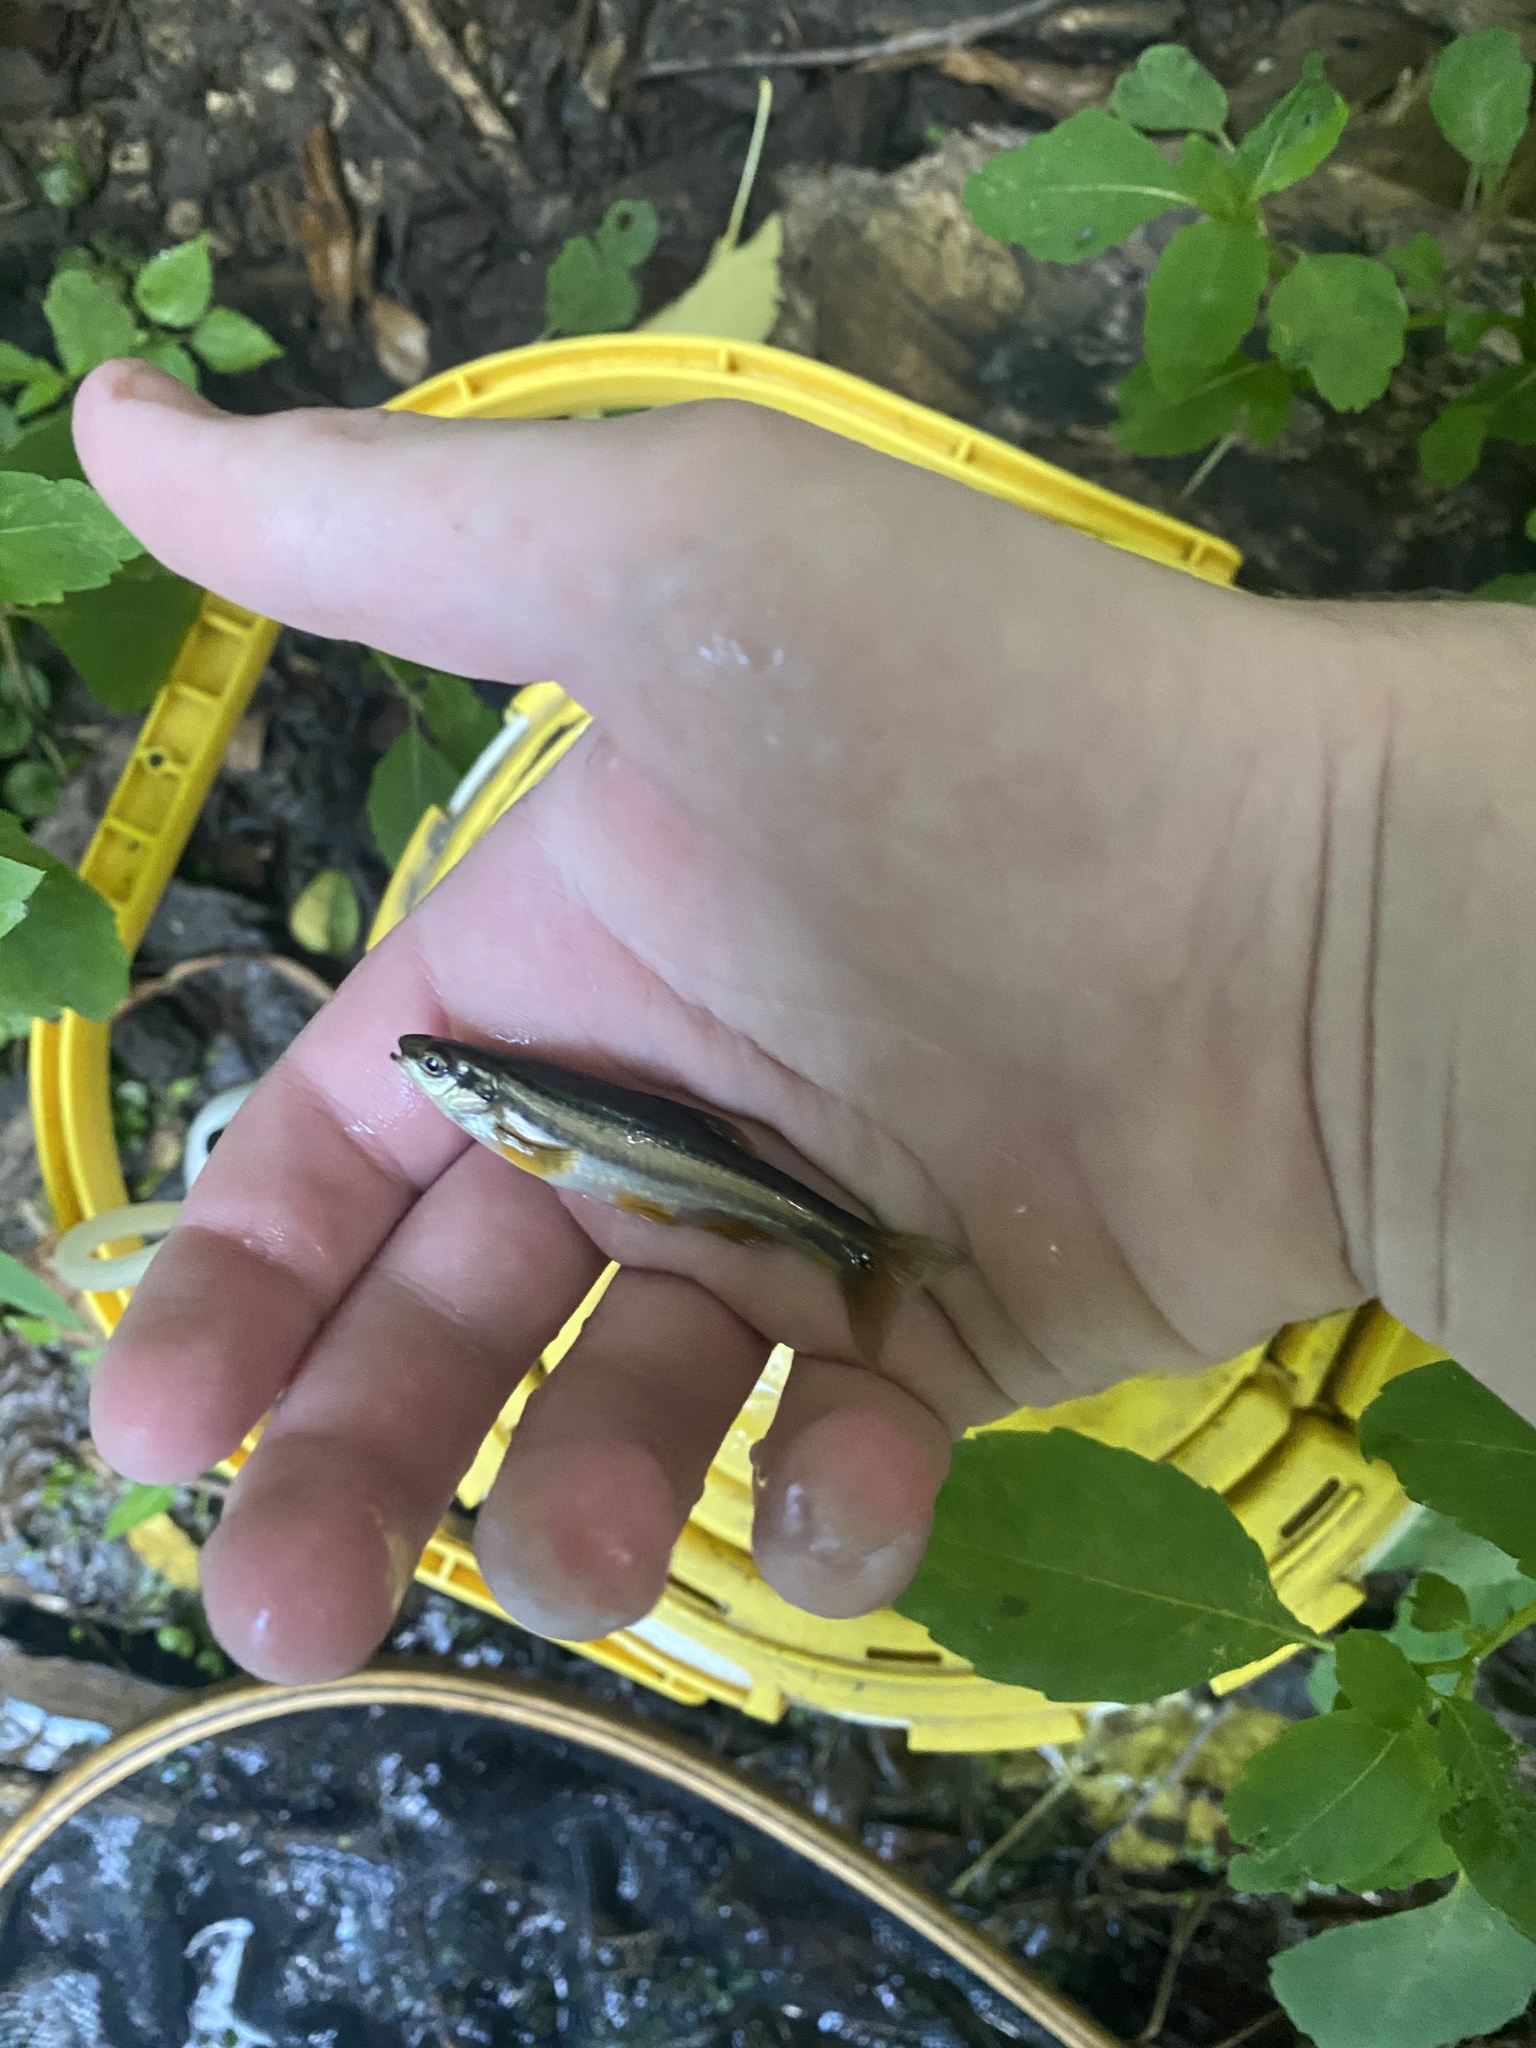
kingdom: Animalia
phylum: Chordata
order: Cypriniformes
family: Cyprinidae
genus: Chrosomus
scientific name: Chrosomus erythrogaster
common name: Southern redbelly dace
